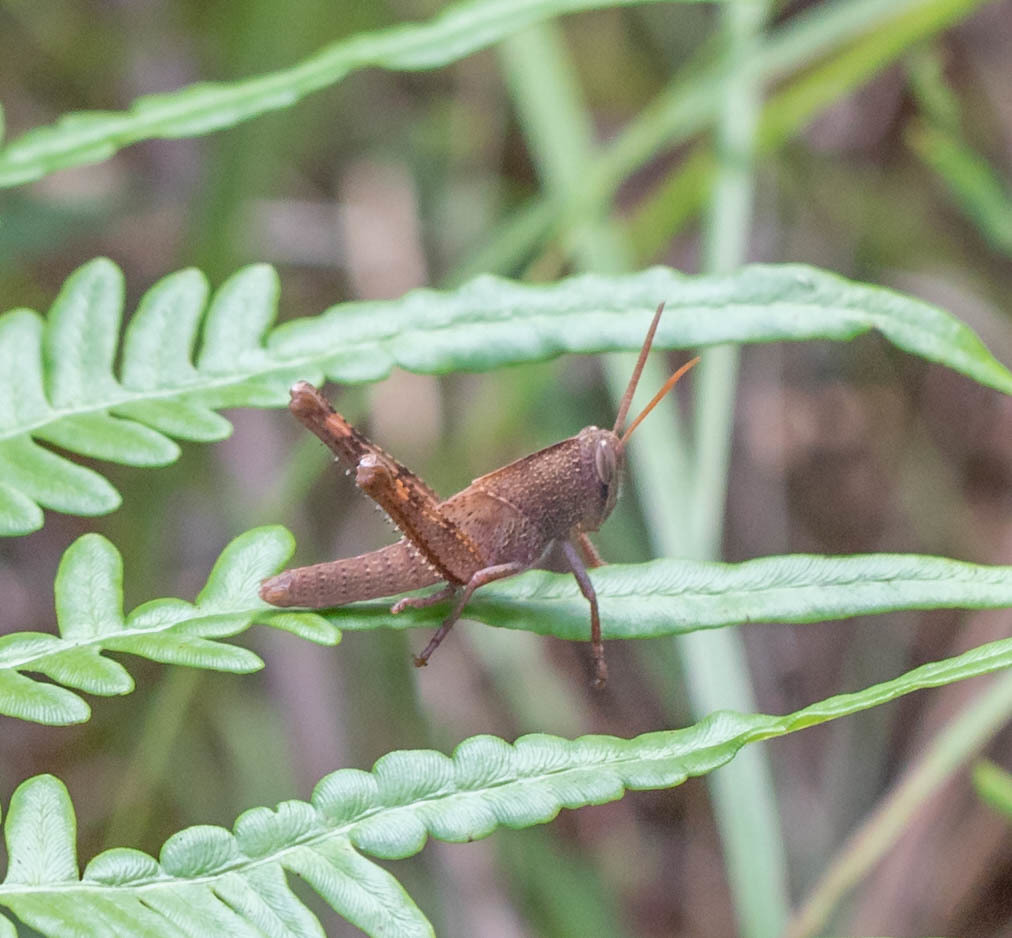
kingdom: Animalia
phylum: Arthropoda
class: Insecta
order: Orthoptera
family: Acrididae
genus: Schistocerca
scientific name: Schistocerca damnifica
